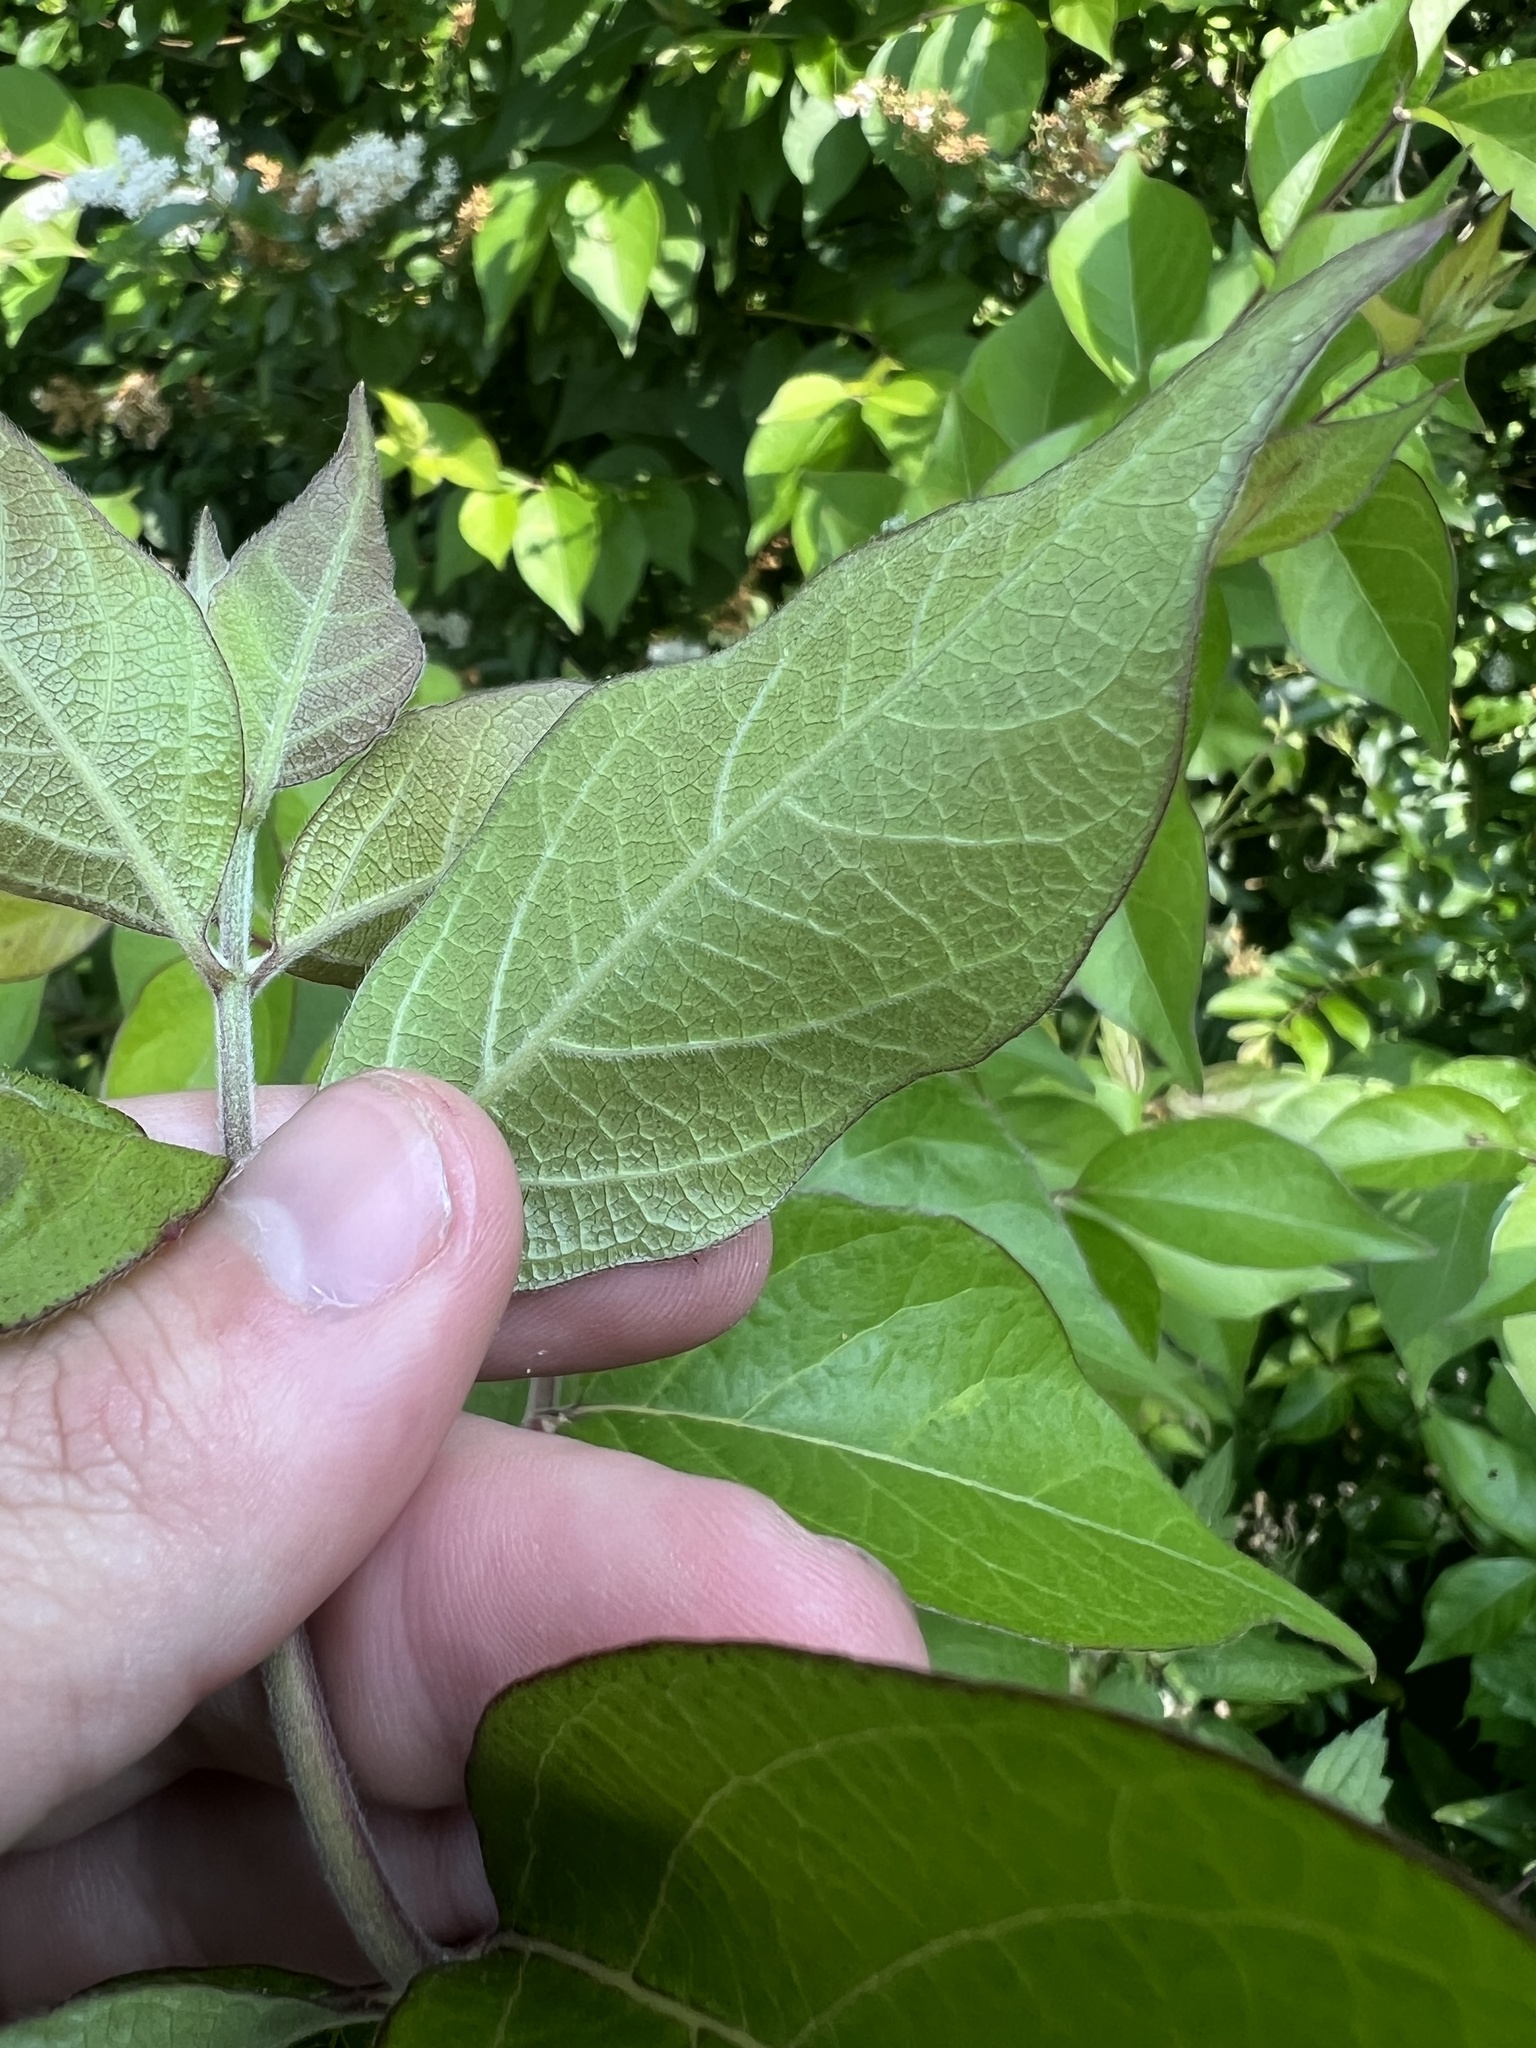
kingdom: Plantae
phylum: Tracheophyta
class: Magnoliopsida
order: Dipsacales
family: Caprifoliaceae
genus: Lonicera
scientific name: Lonicera maackii
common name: Amur honeysuckle
